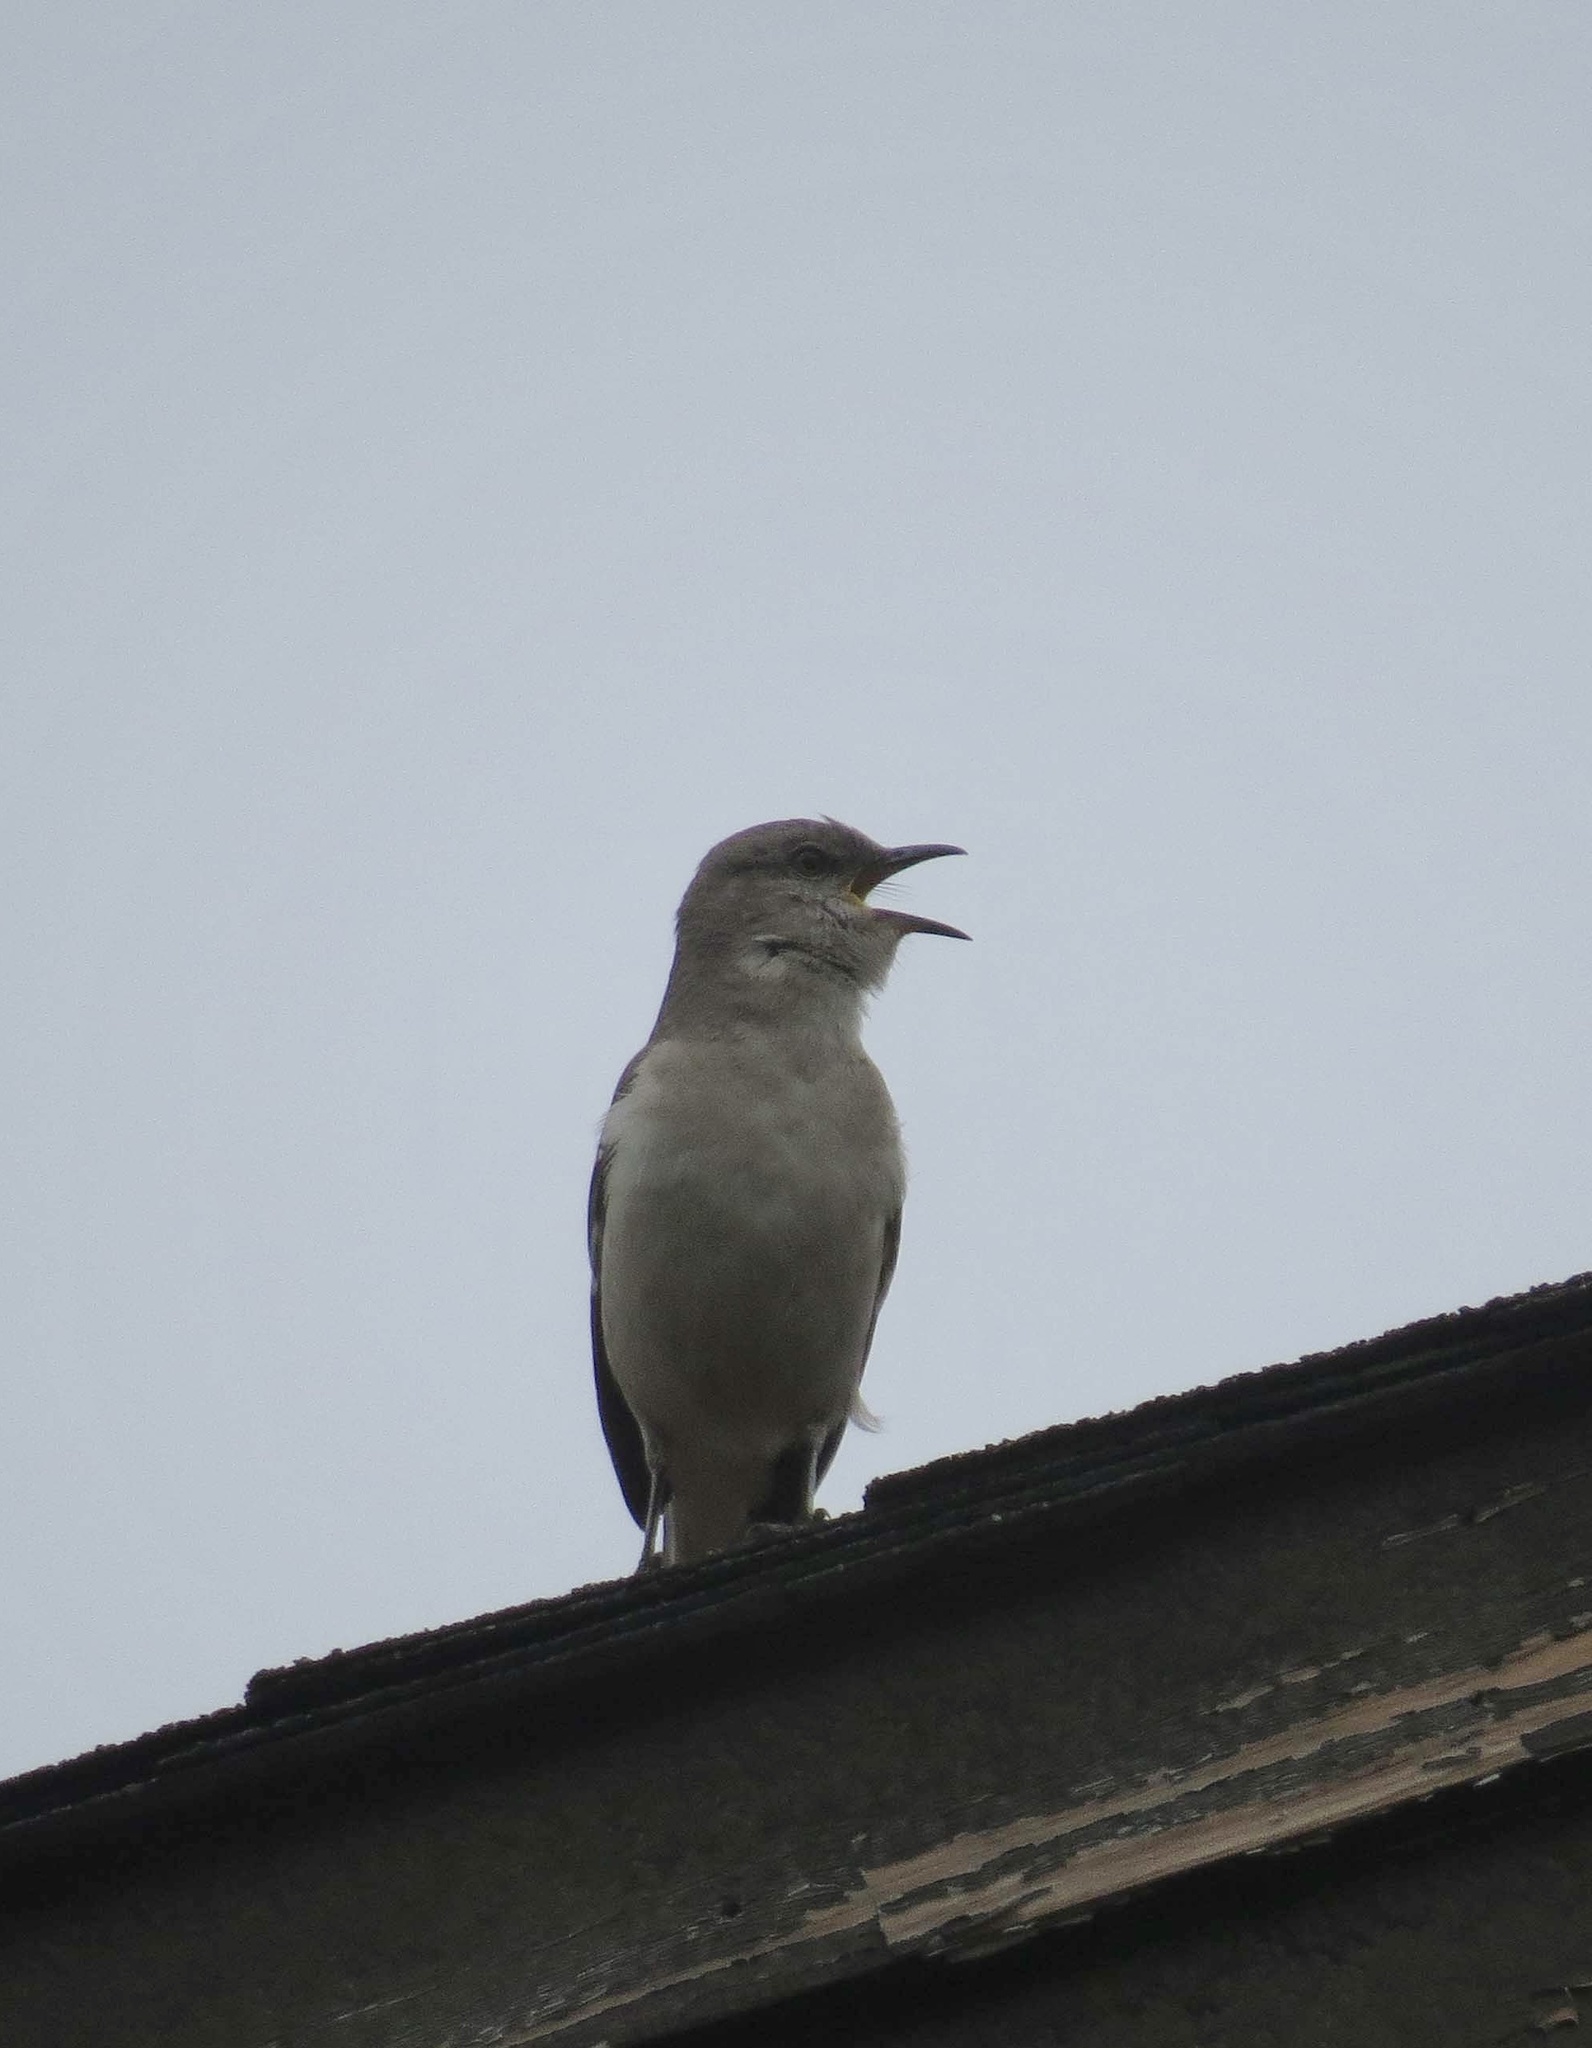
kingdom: Animalia
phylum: Chordata
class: Aves
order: Passeriformes
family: Mimidae
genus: Mimus
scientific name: Mimus polyglottos
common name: Northern mockingbird
